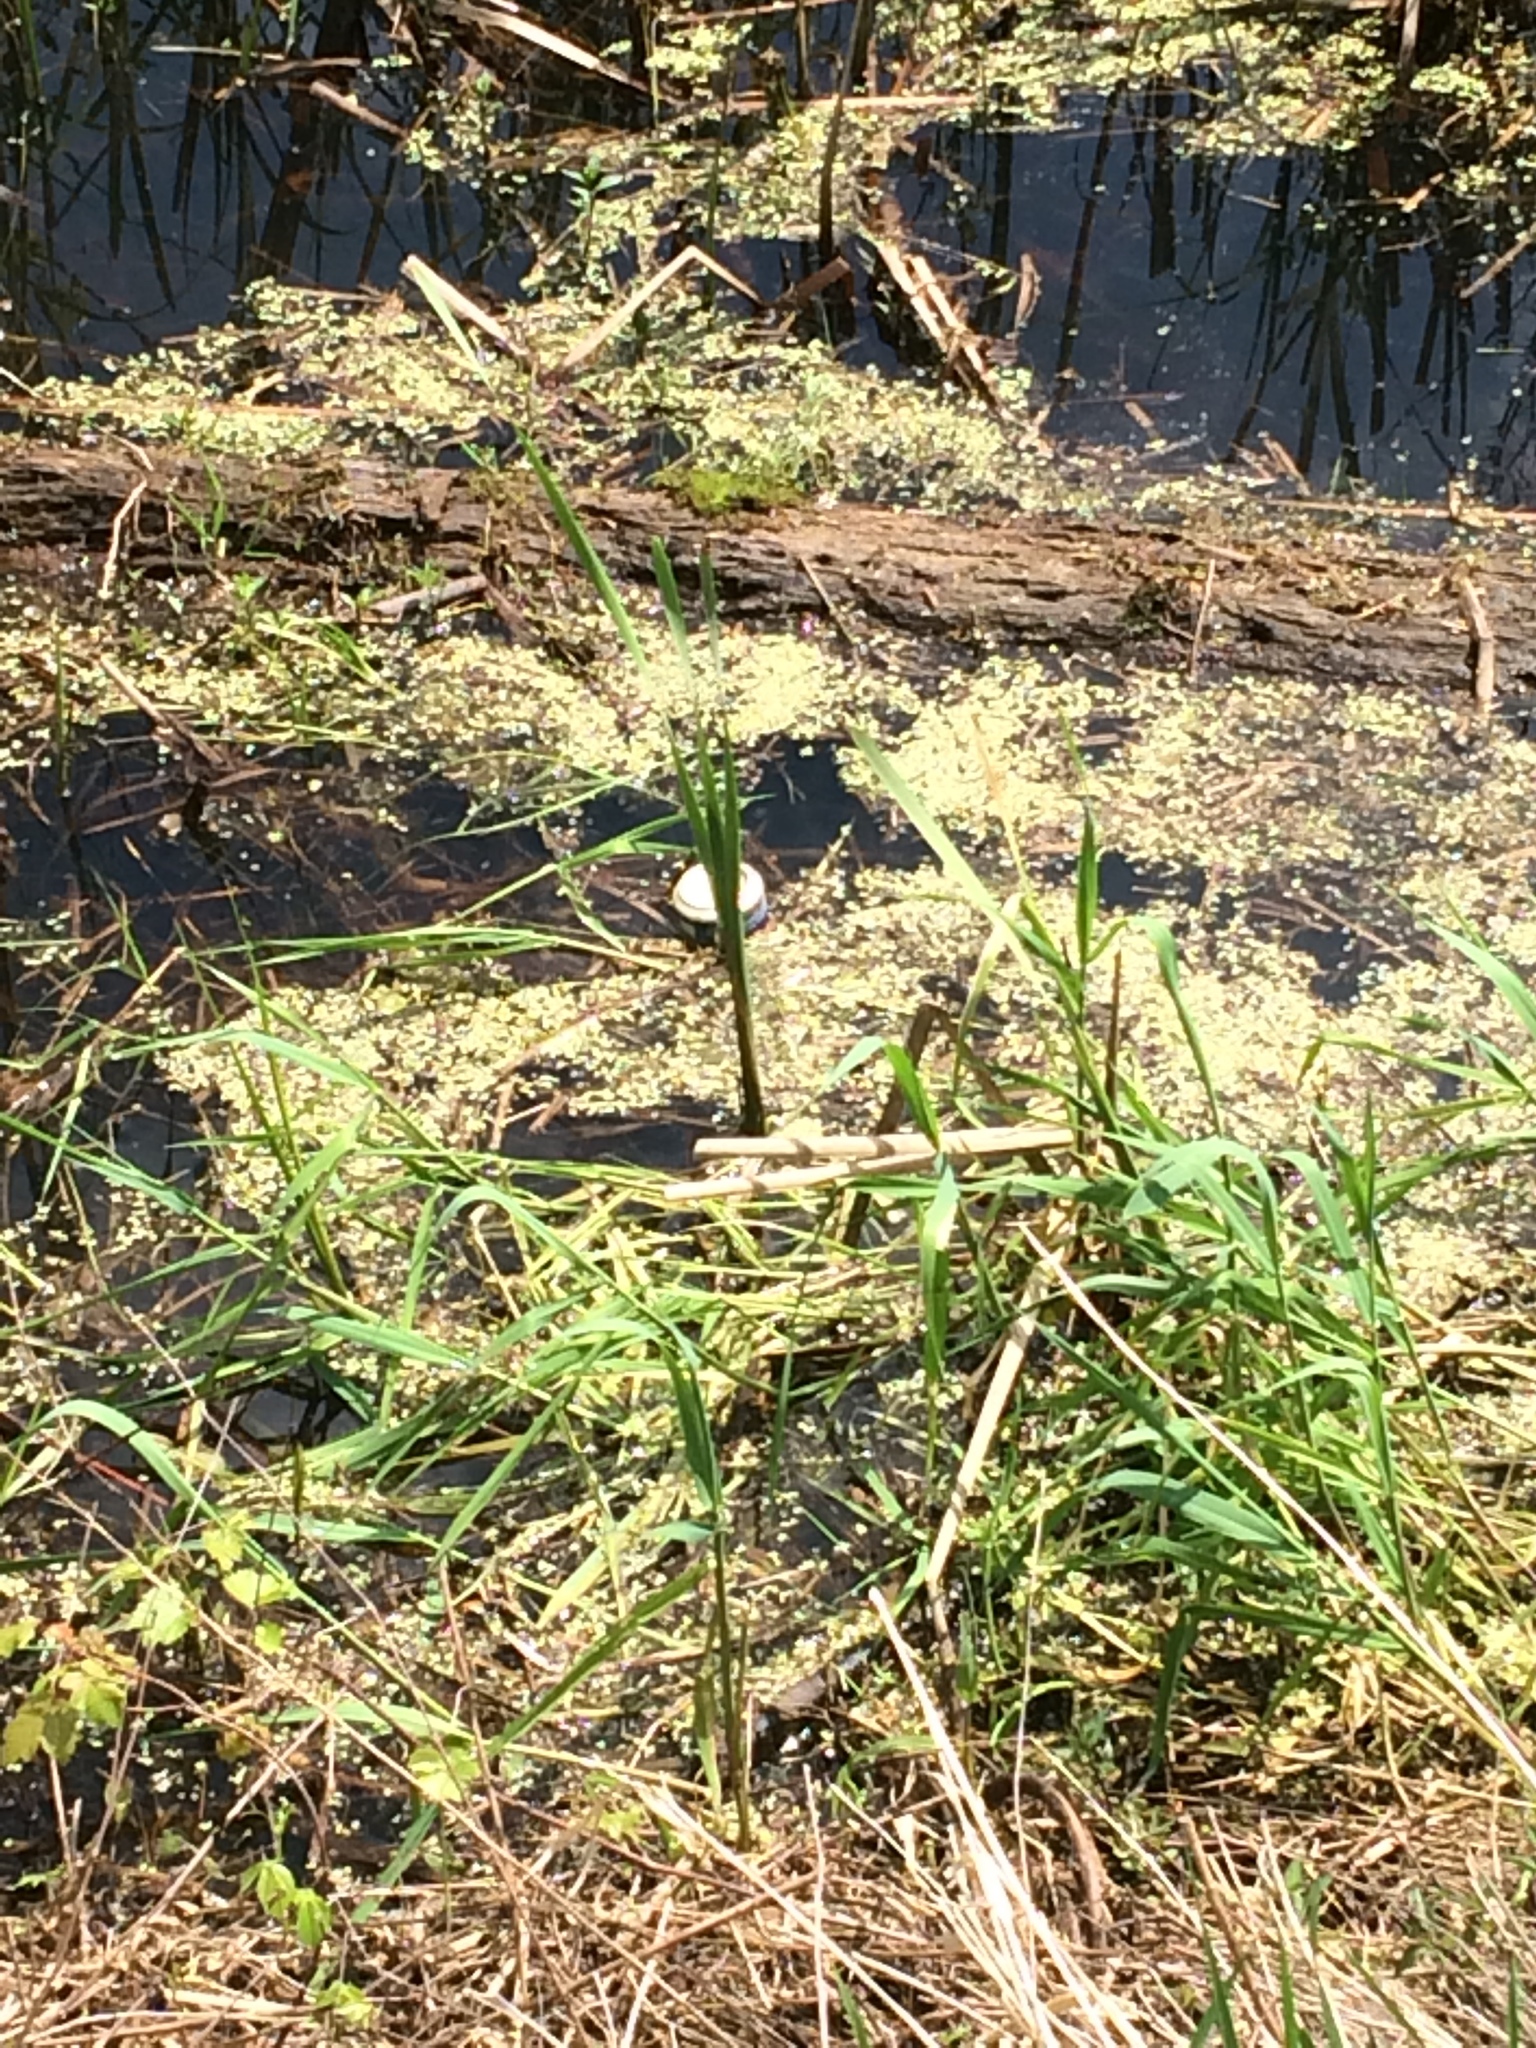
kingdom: Plantae
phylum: Tracheophyta
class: Liliopsida
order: Alismatales
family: Araceae
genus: Lemna
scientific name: Lemna minor
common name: Common duckweed
